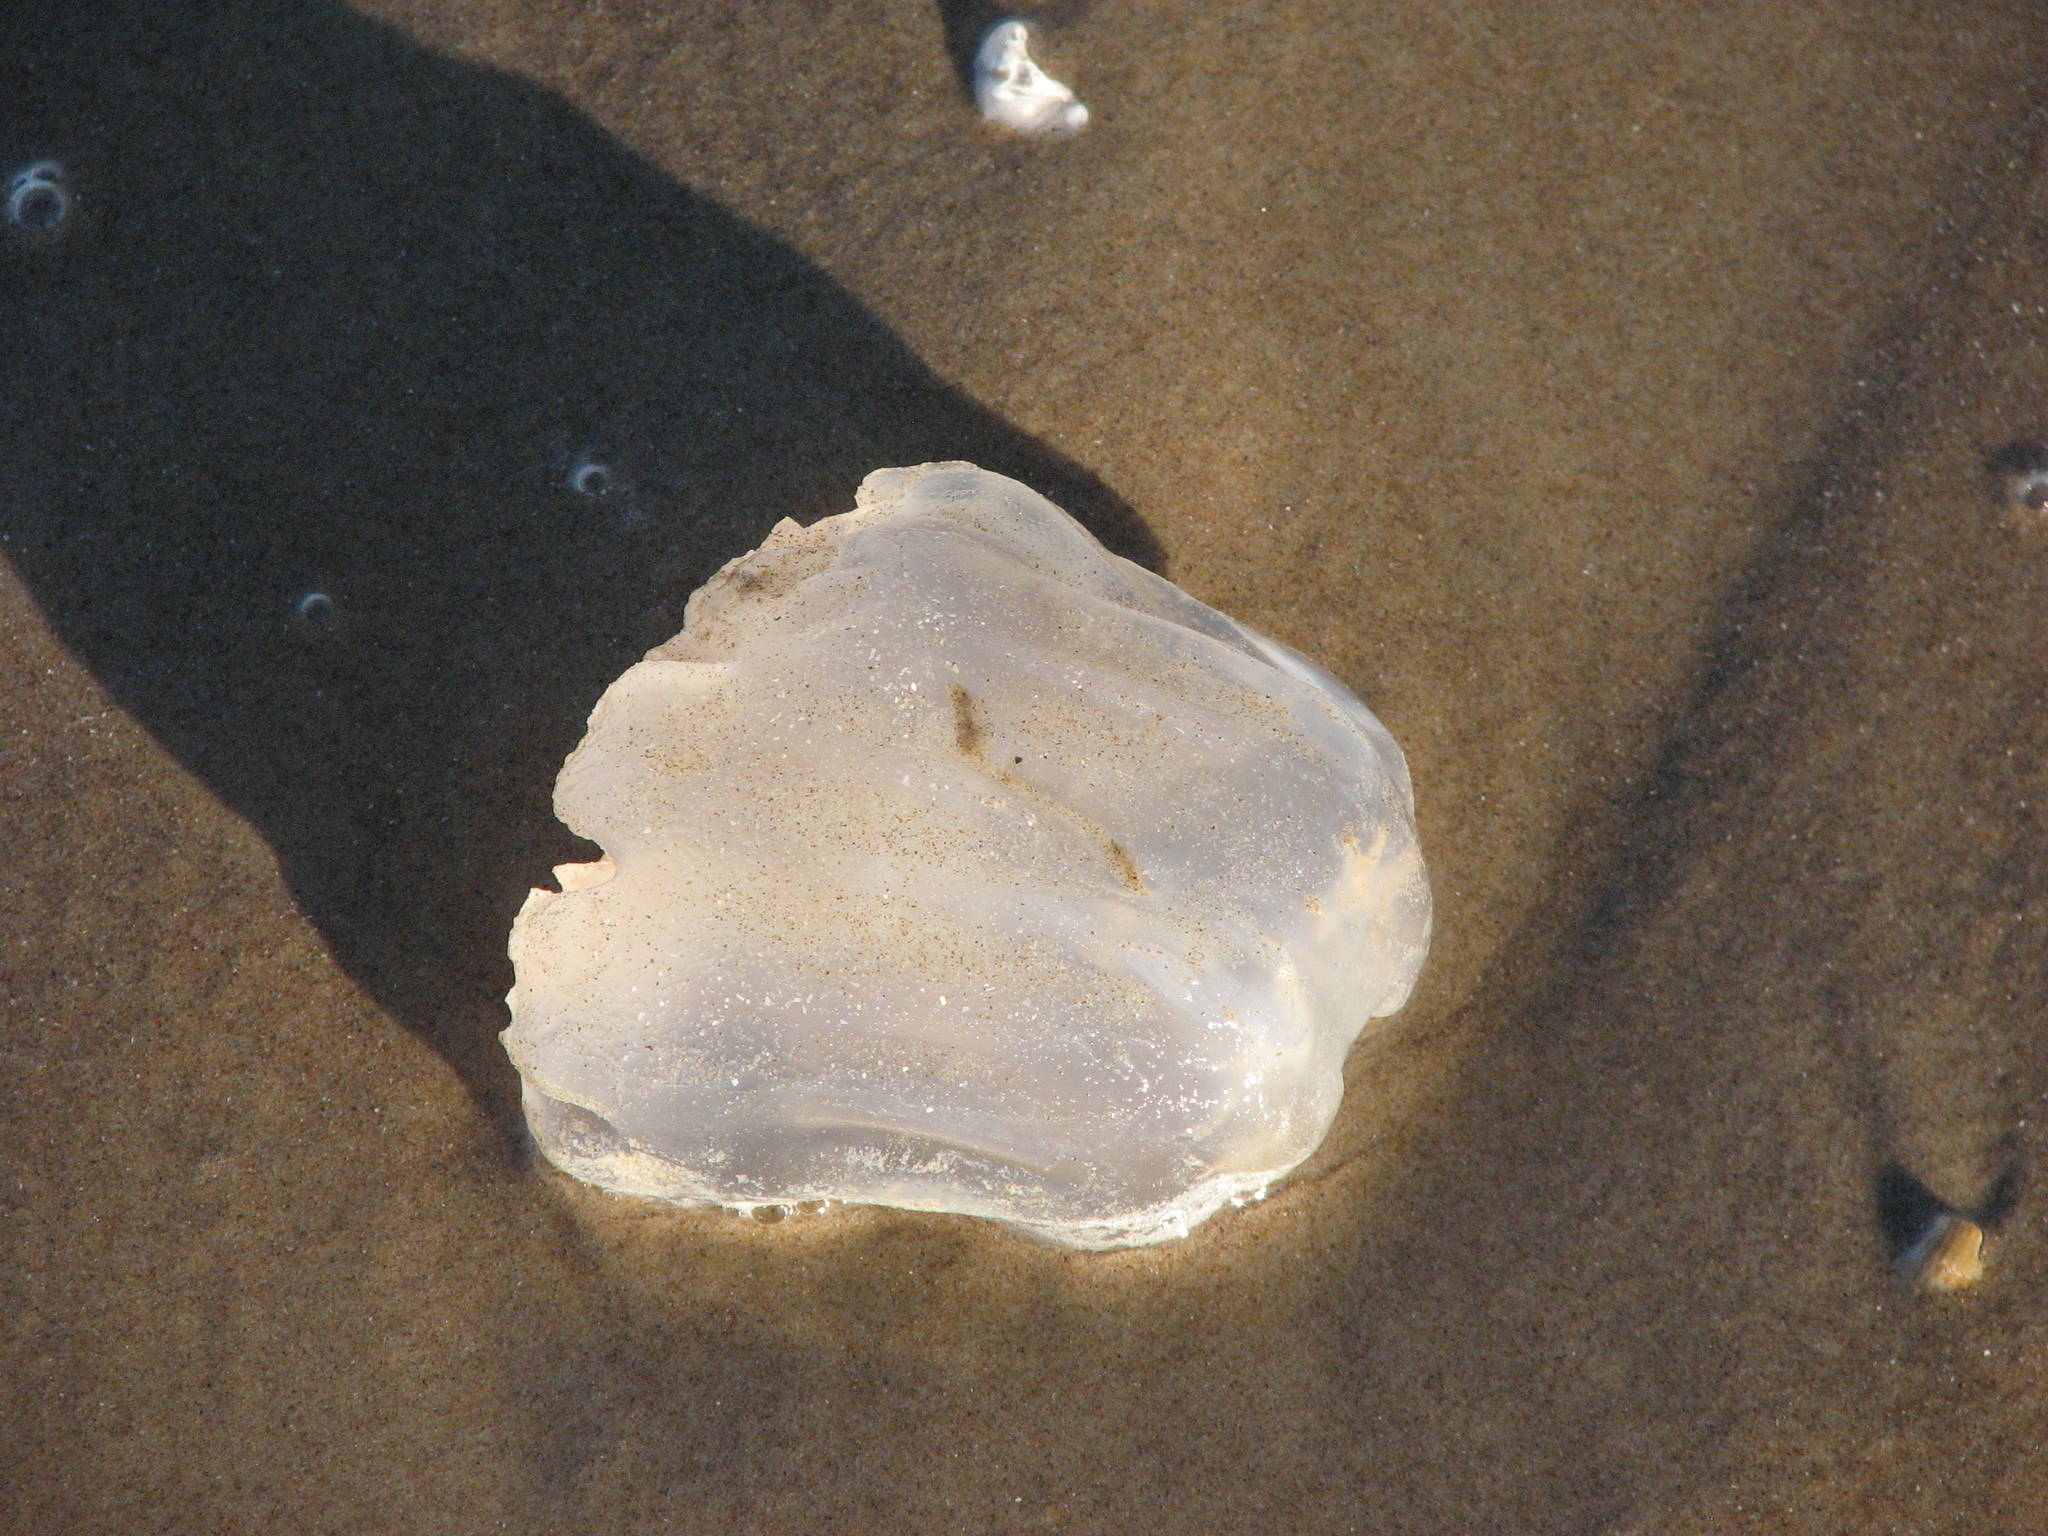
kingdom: Animalia
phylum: Cnidaria
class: Scyphozoa
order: Rhizostomeae
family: Stomolophidae
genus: Stomolophus
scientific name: Stomolophus meleagris
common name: Cabbagehead
